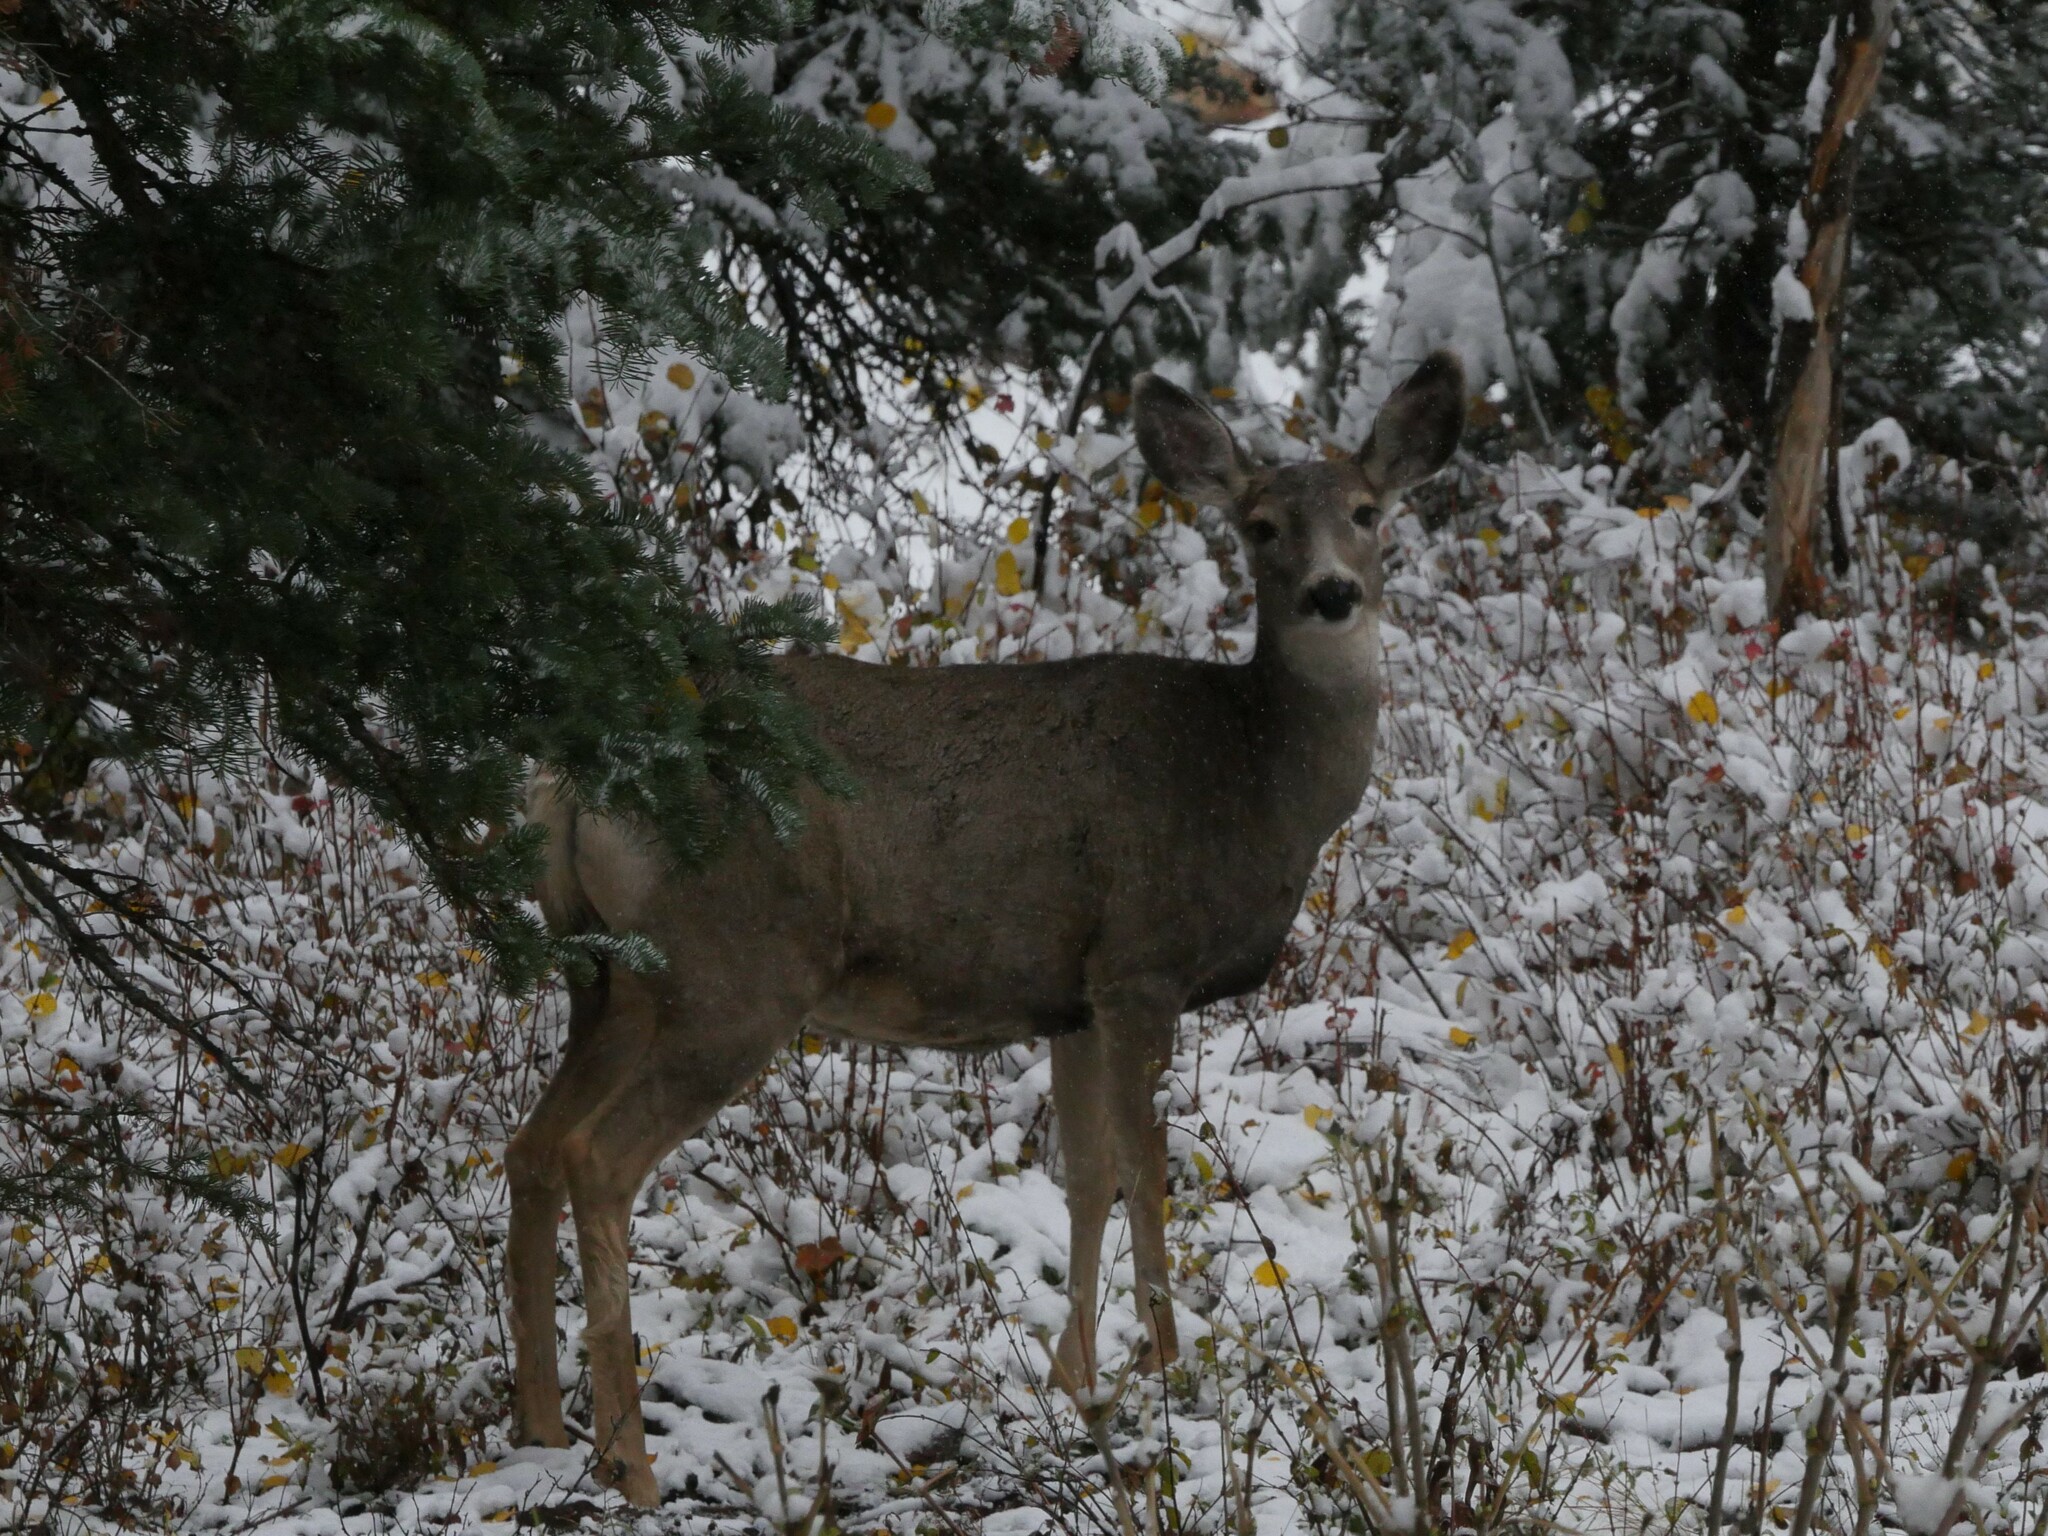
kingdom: Animalia
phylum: Chordata
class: Mammalia
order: Artiodactyla
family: Cervidae
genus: Odocoileus
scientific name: Odocoileus hemionus
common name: Mule deer
